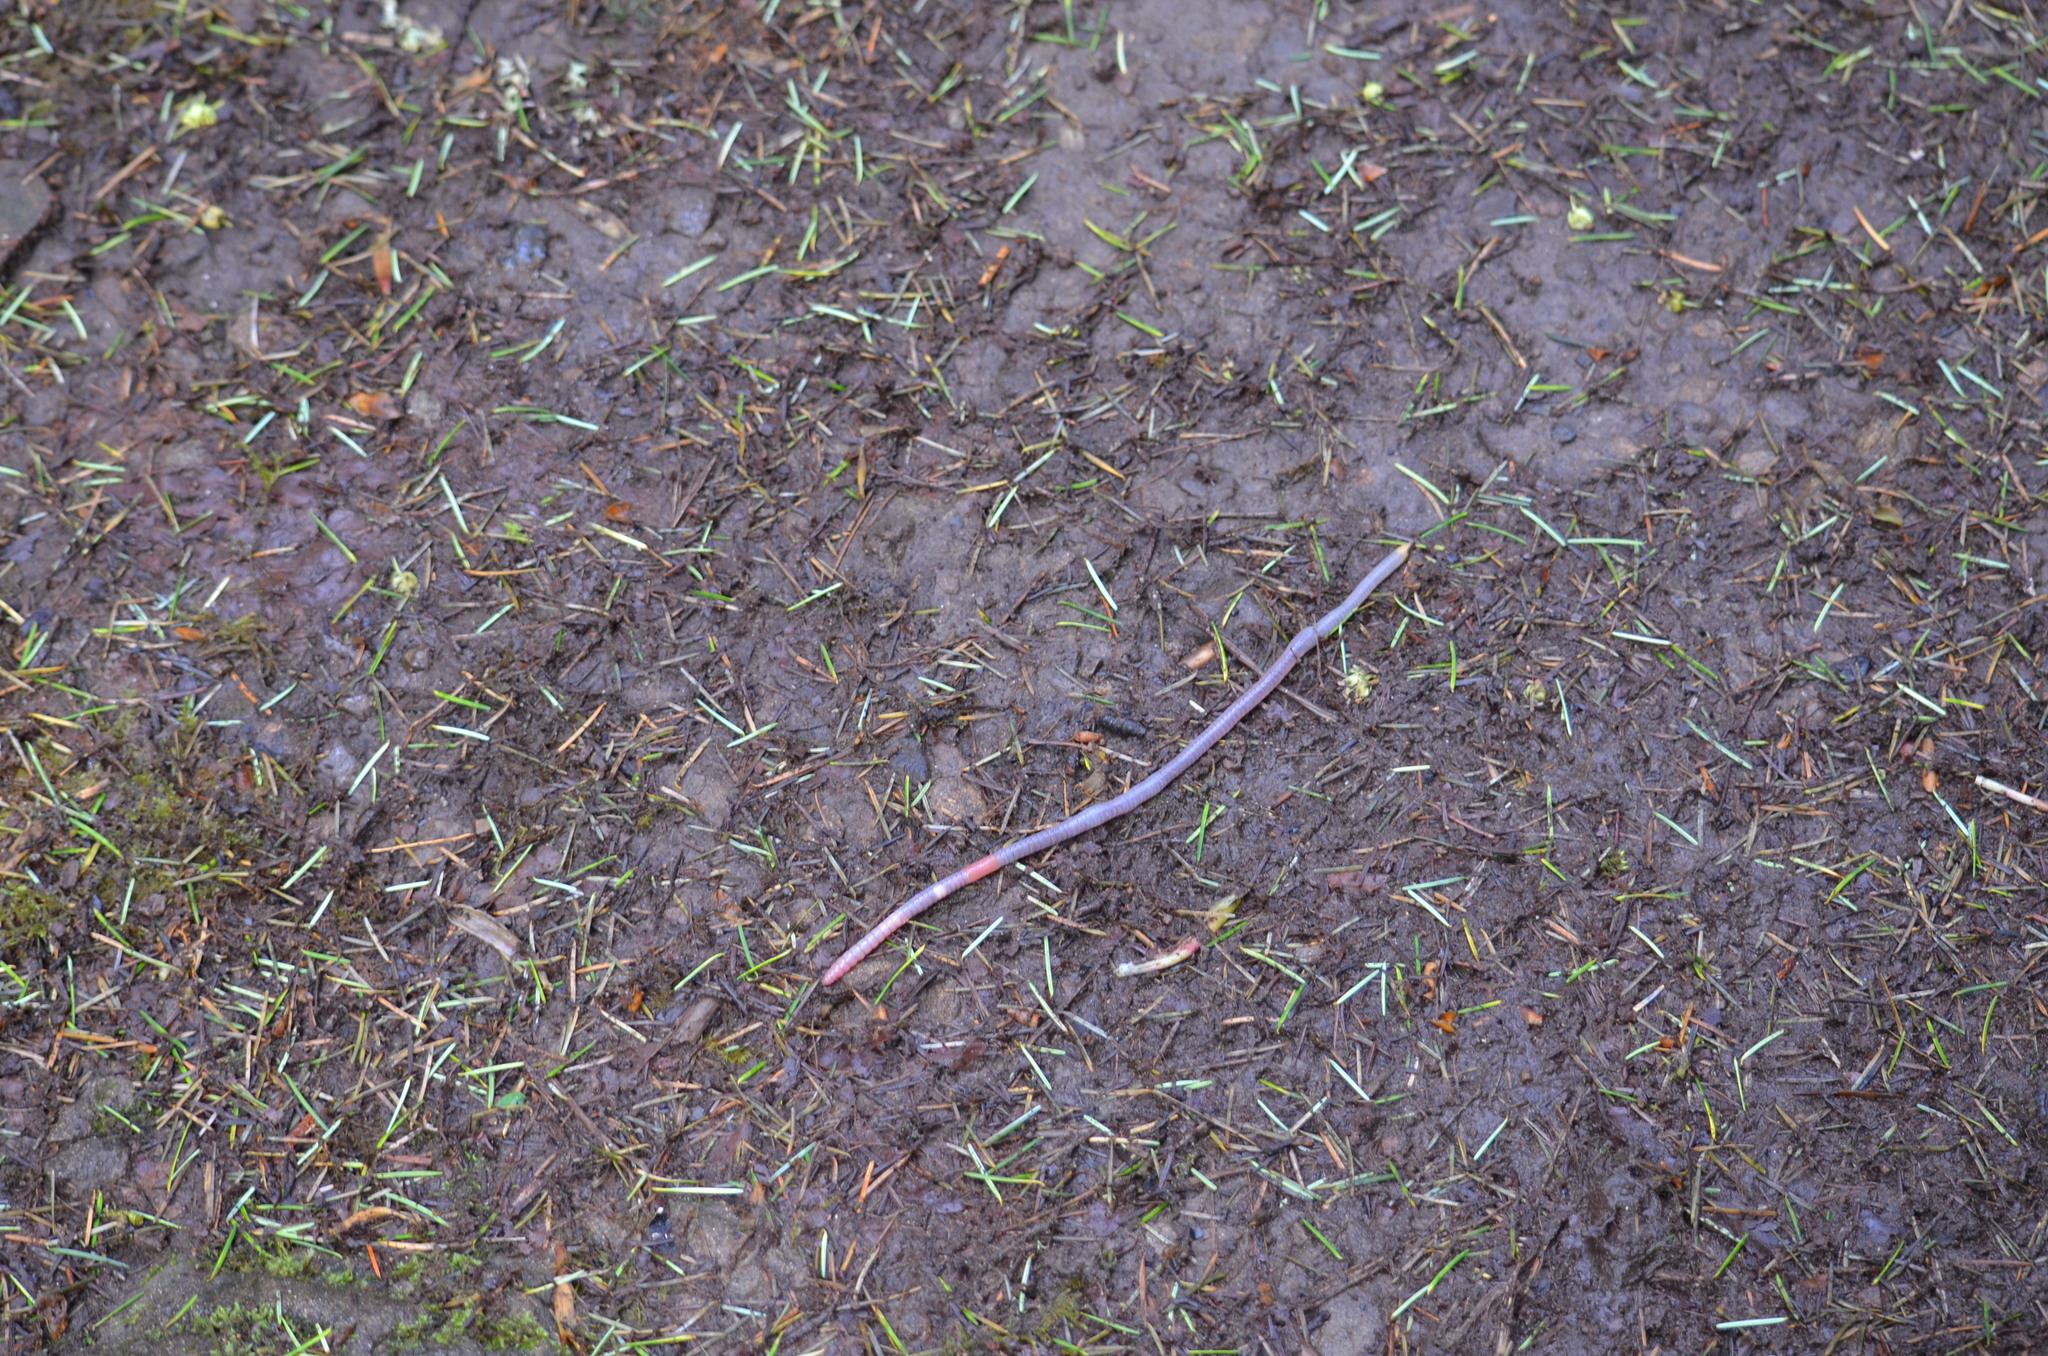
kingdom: Animalia
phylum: Annelida
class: Clitellata
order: Crassiclitellata
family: Lumbricidae
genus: Octolasion
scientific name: Octolasion cyaneum
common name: Woodland blue worm
